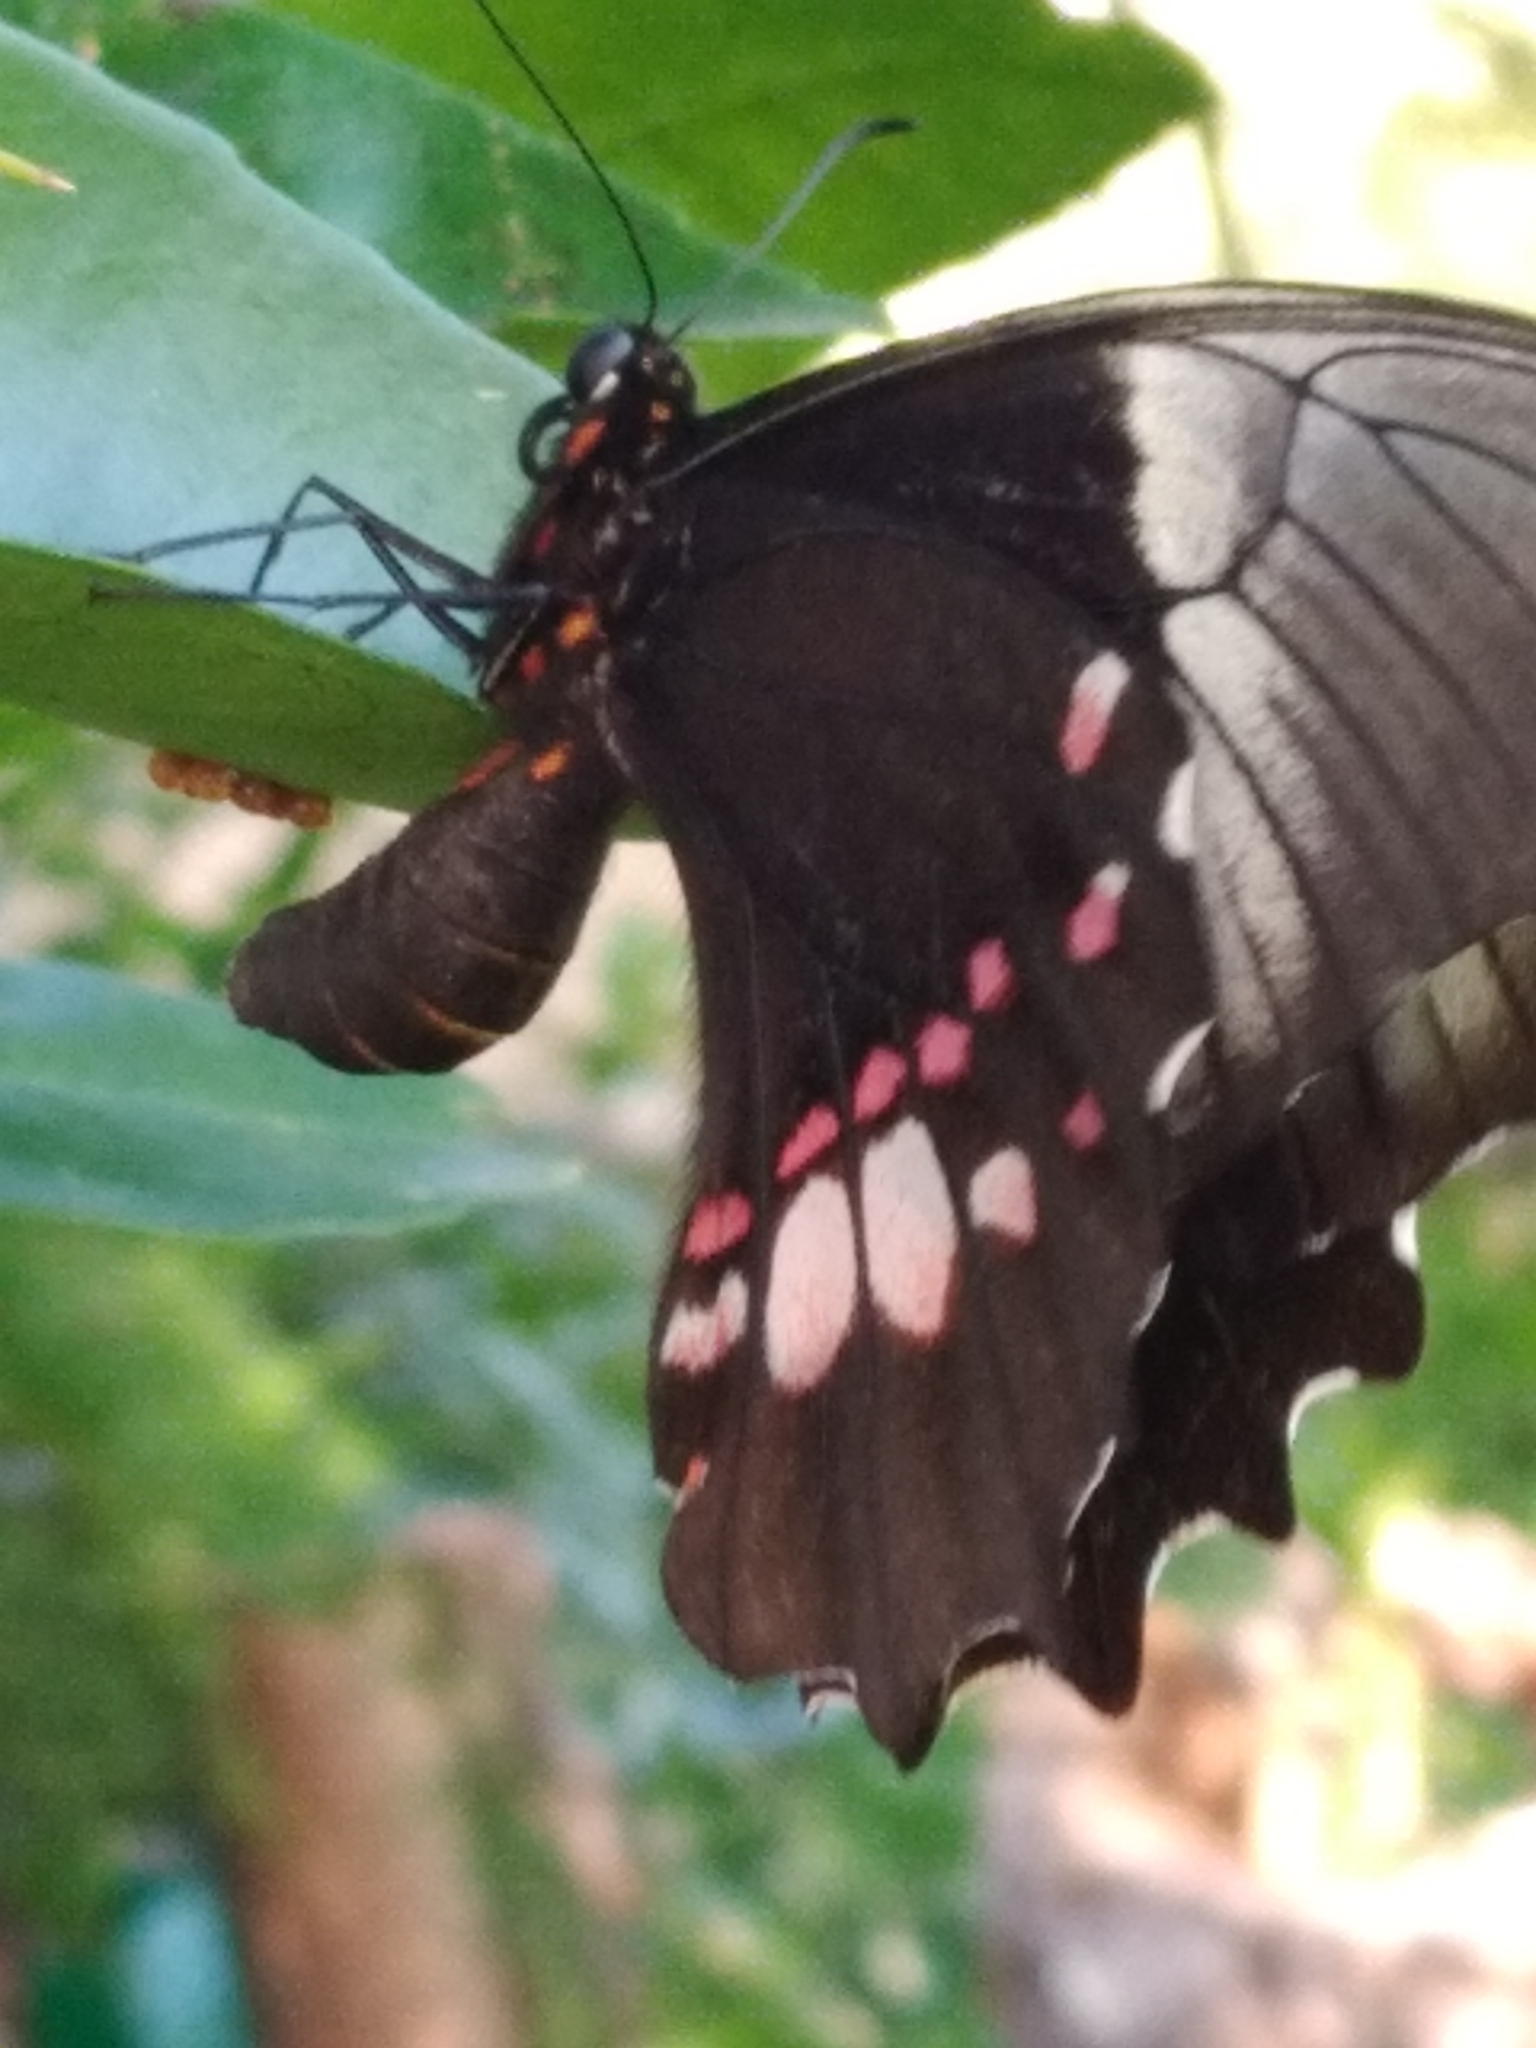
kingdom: Animalia
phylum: Arthropoda
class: Insecta
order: Lepidoptera
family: Papilionidae
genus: Papilio
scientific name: Papilio anchisiades
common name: Idaes swallowtail
